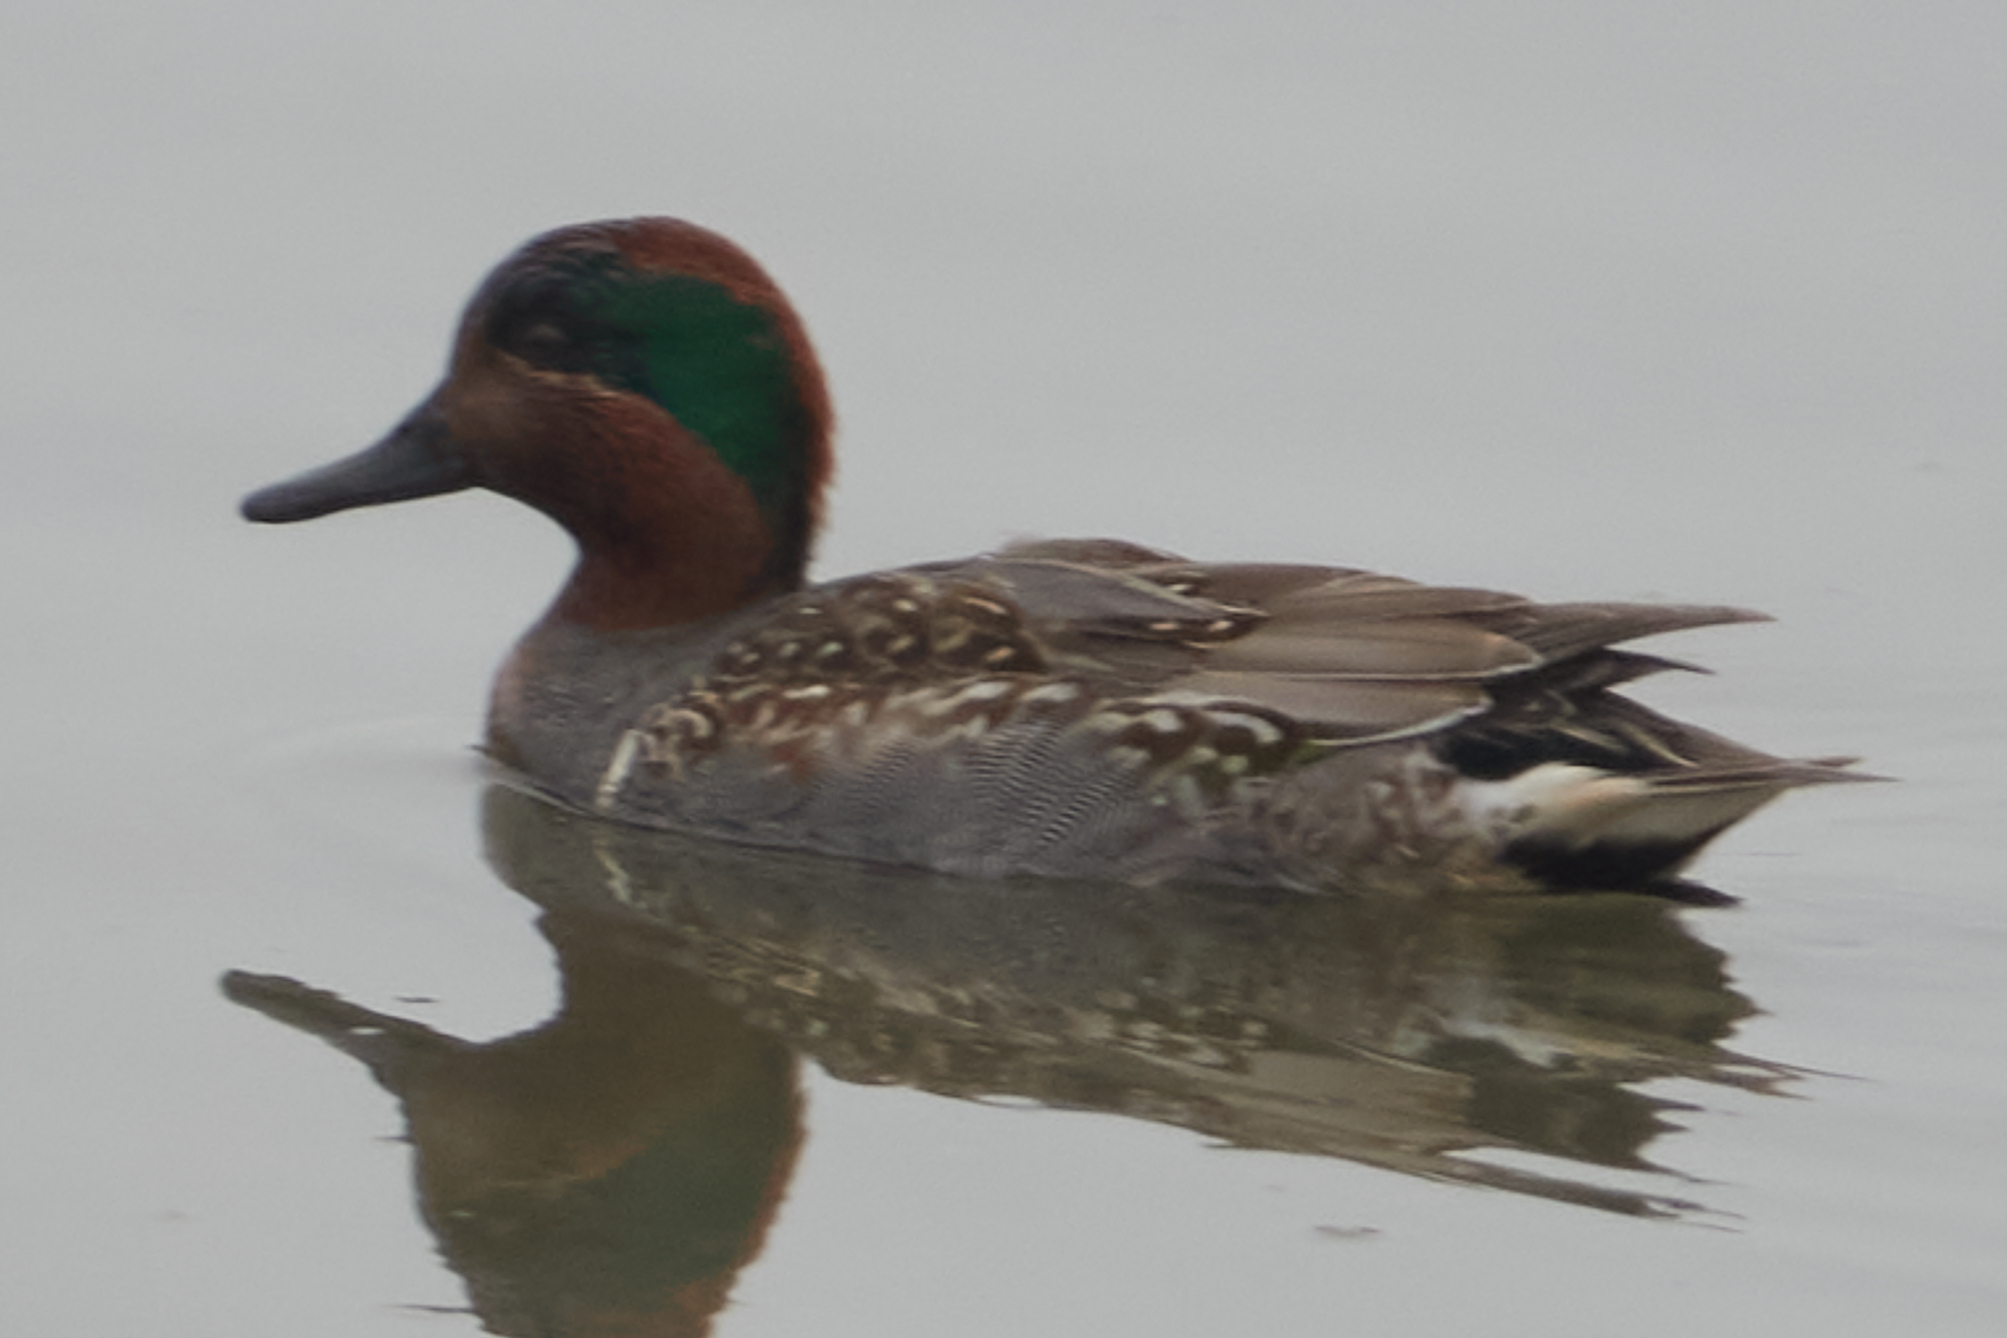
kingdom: Animalia
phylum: Chordata
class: Aves
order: Anseriformes
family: Anatidae
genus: Anas
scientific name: Anas crecca
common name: Eurasian teal
